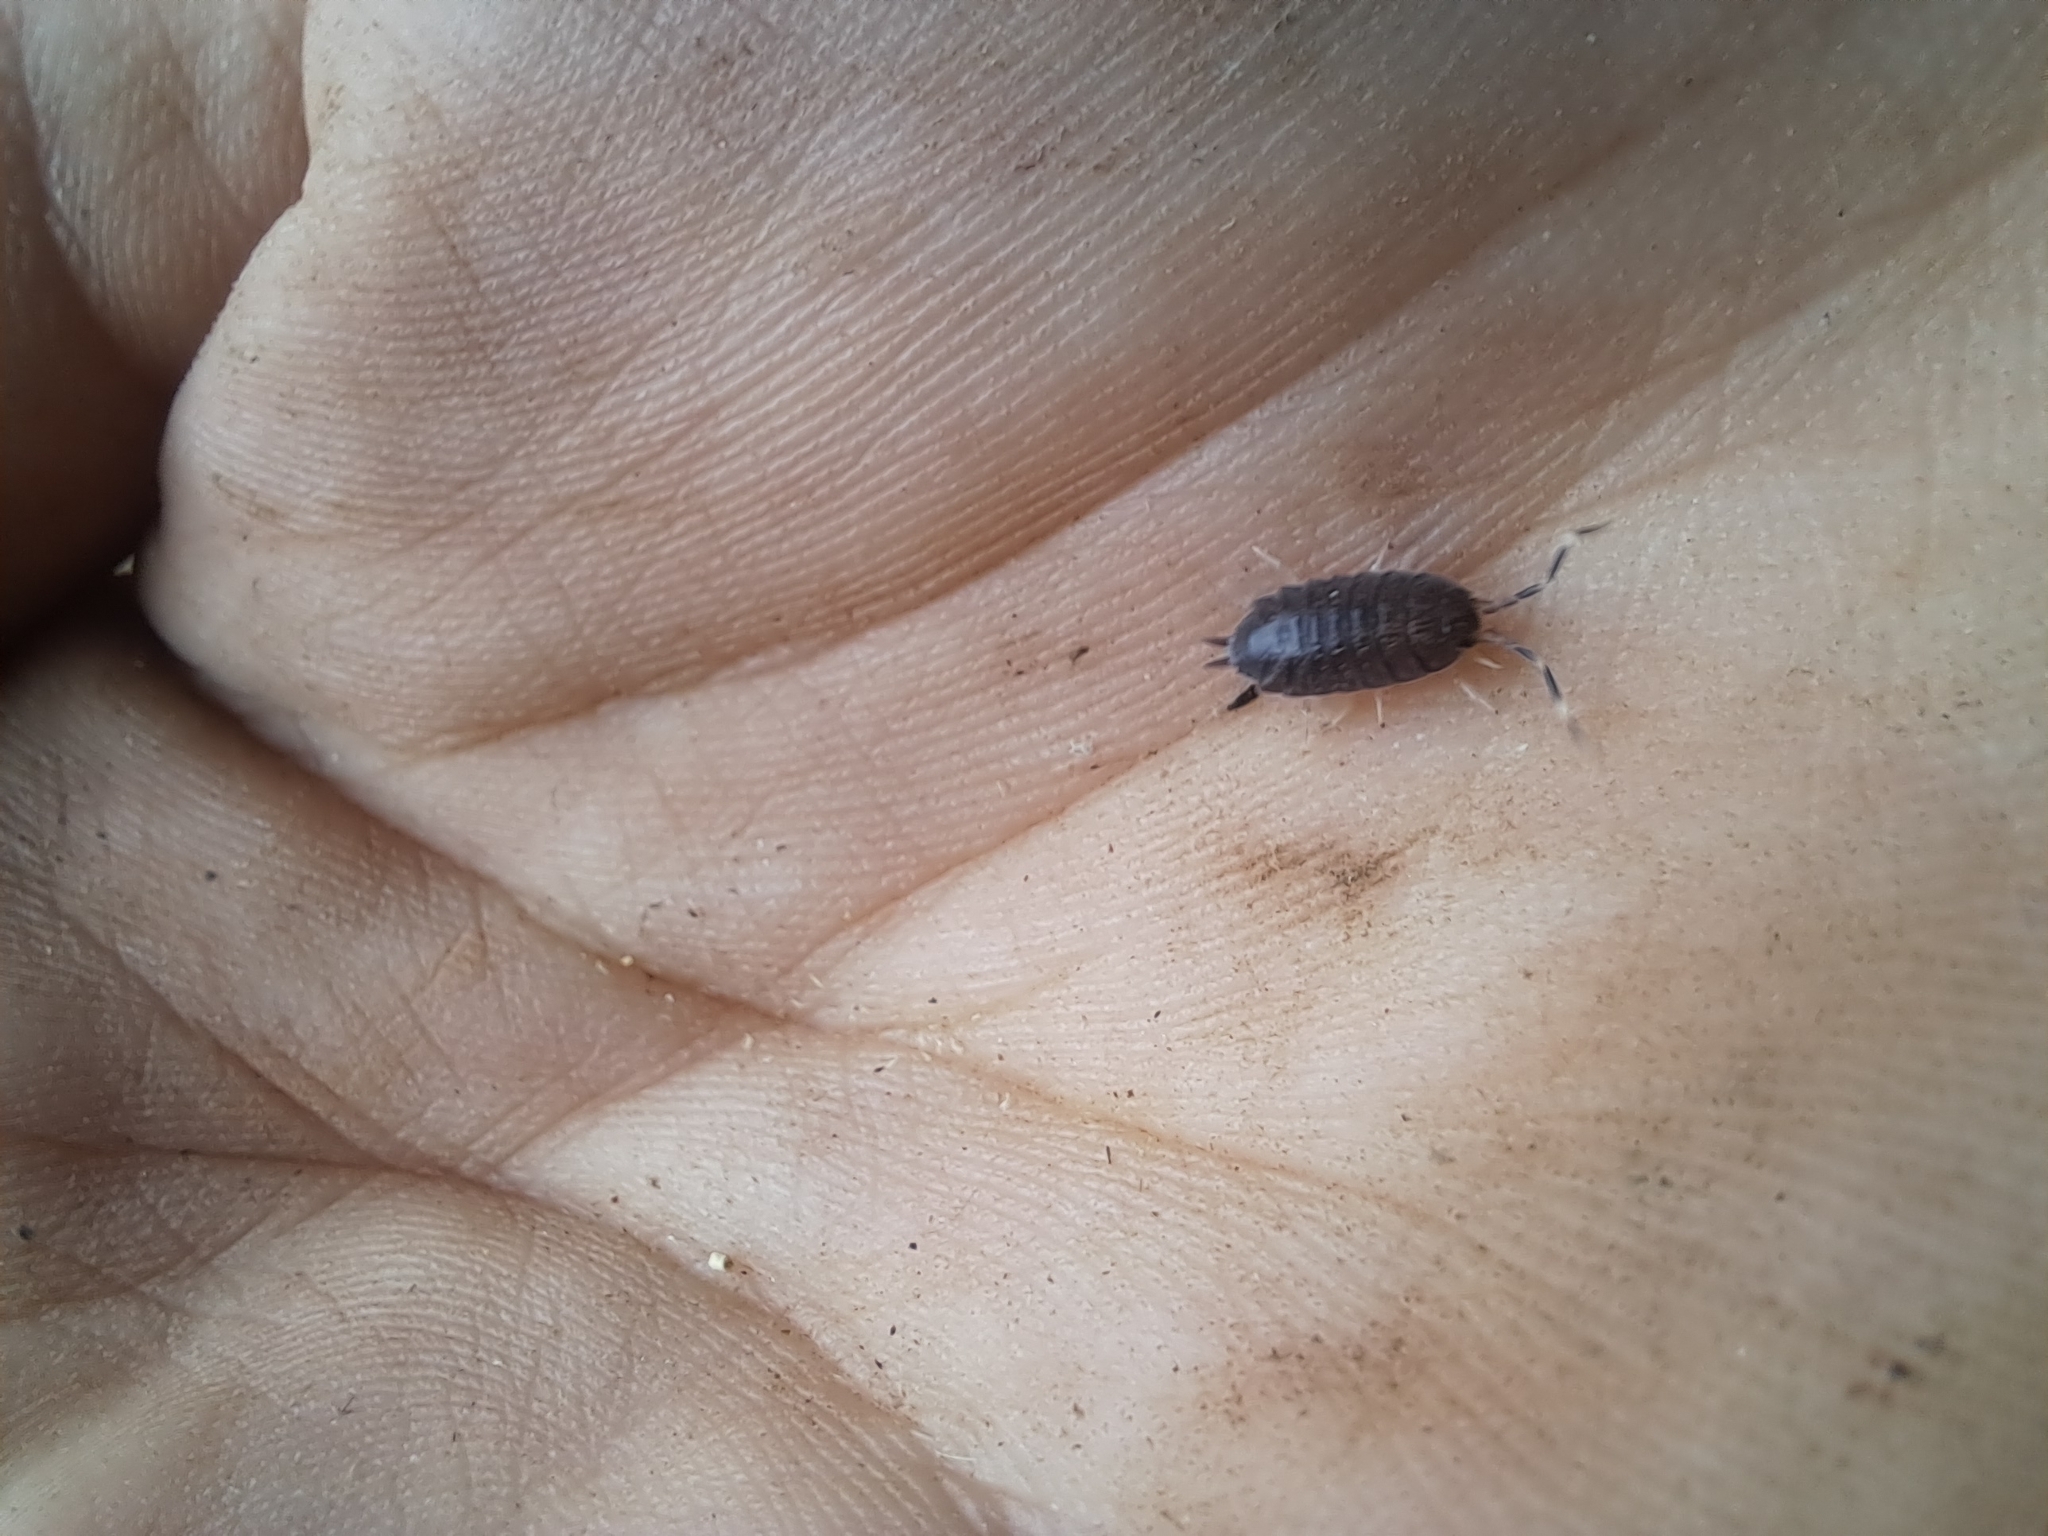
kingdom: Animalia
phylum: Arthropoda
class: Malacostraca
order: Isopoda
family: Porcellionidae
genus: Porcellionides
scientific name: Porcellionides
